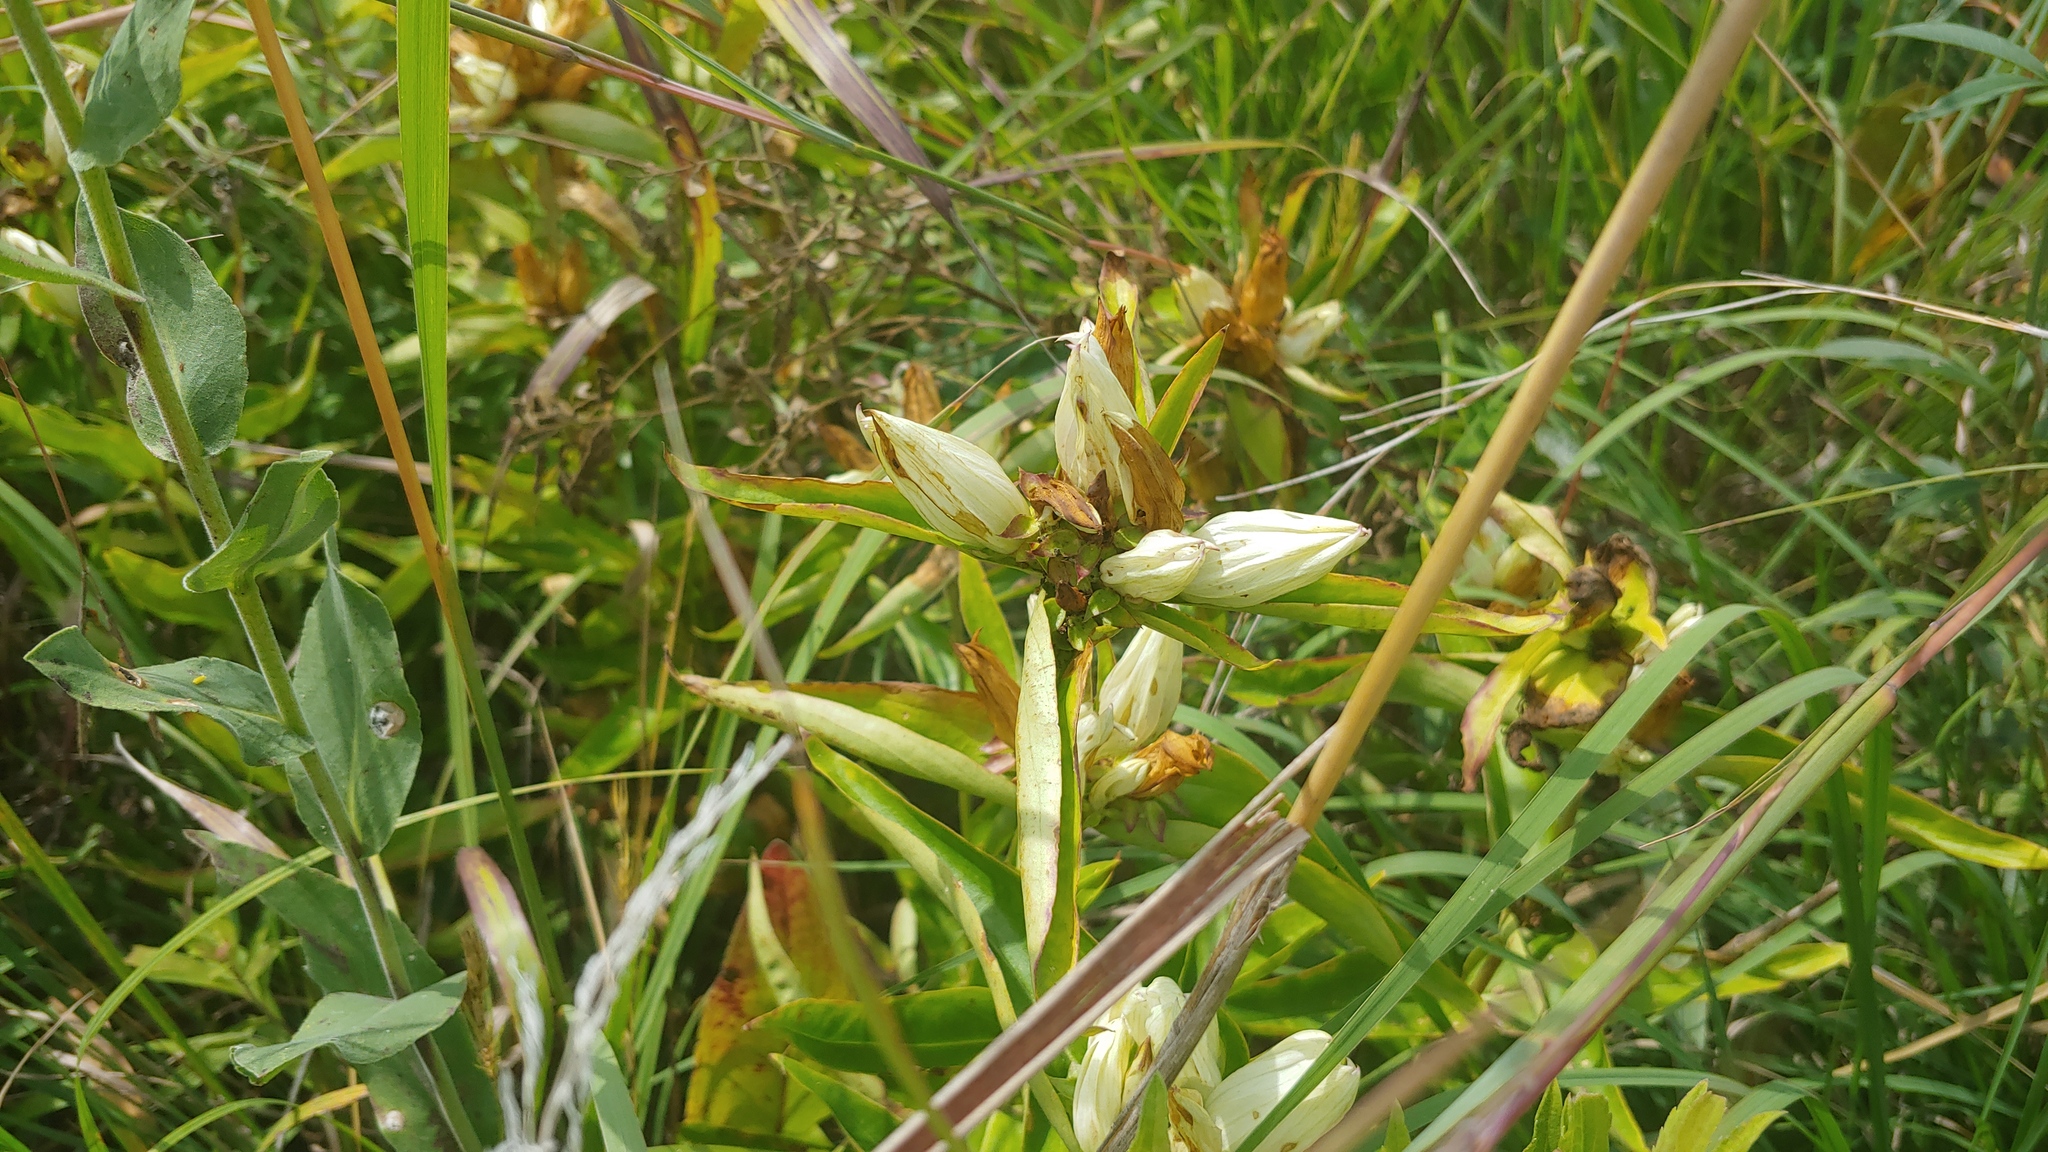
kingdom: Plantae
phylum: Tracheophyta
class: Magnoliopsida
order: Gentianales
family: Gentianaceae
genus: Gentiana
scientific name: Gentiana alba
